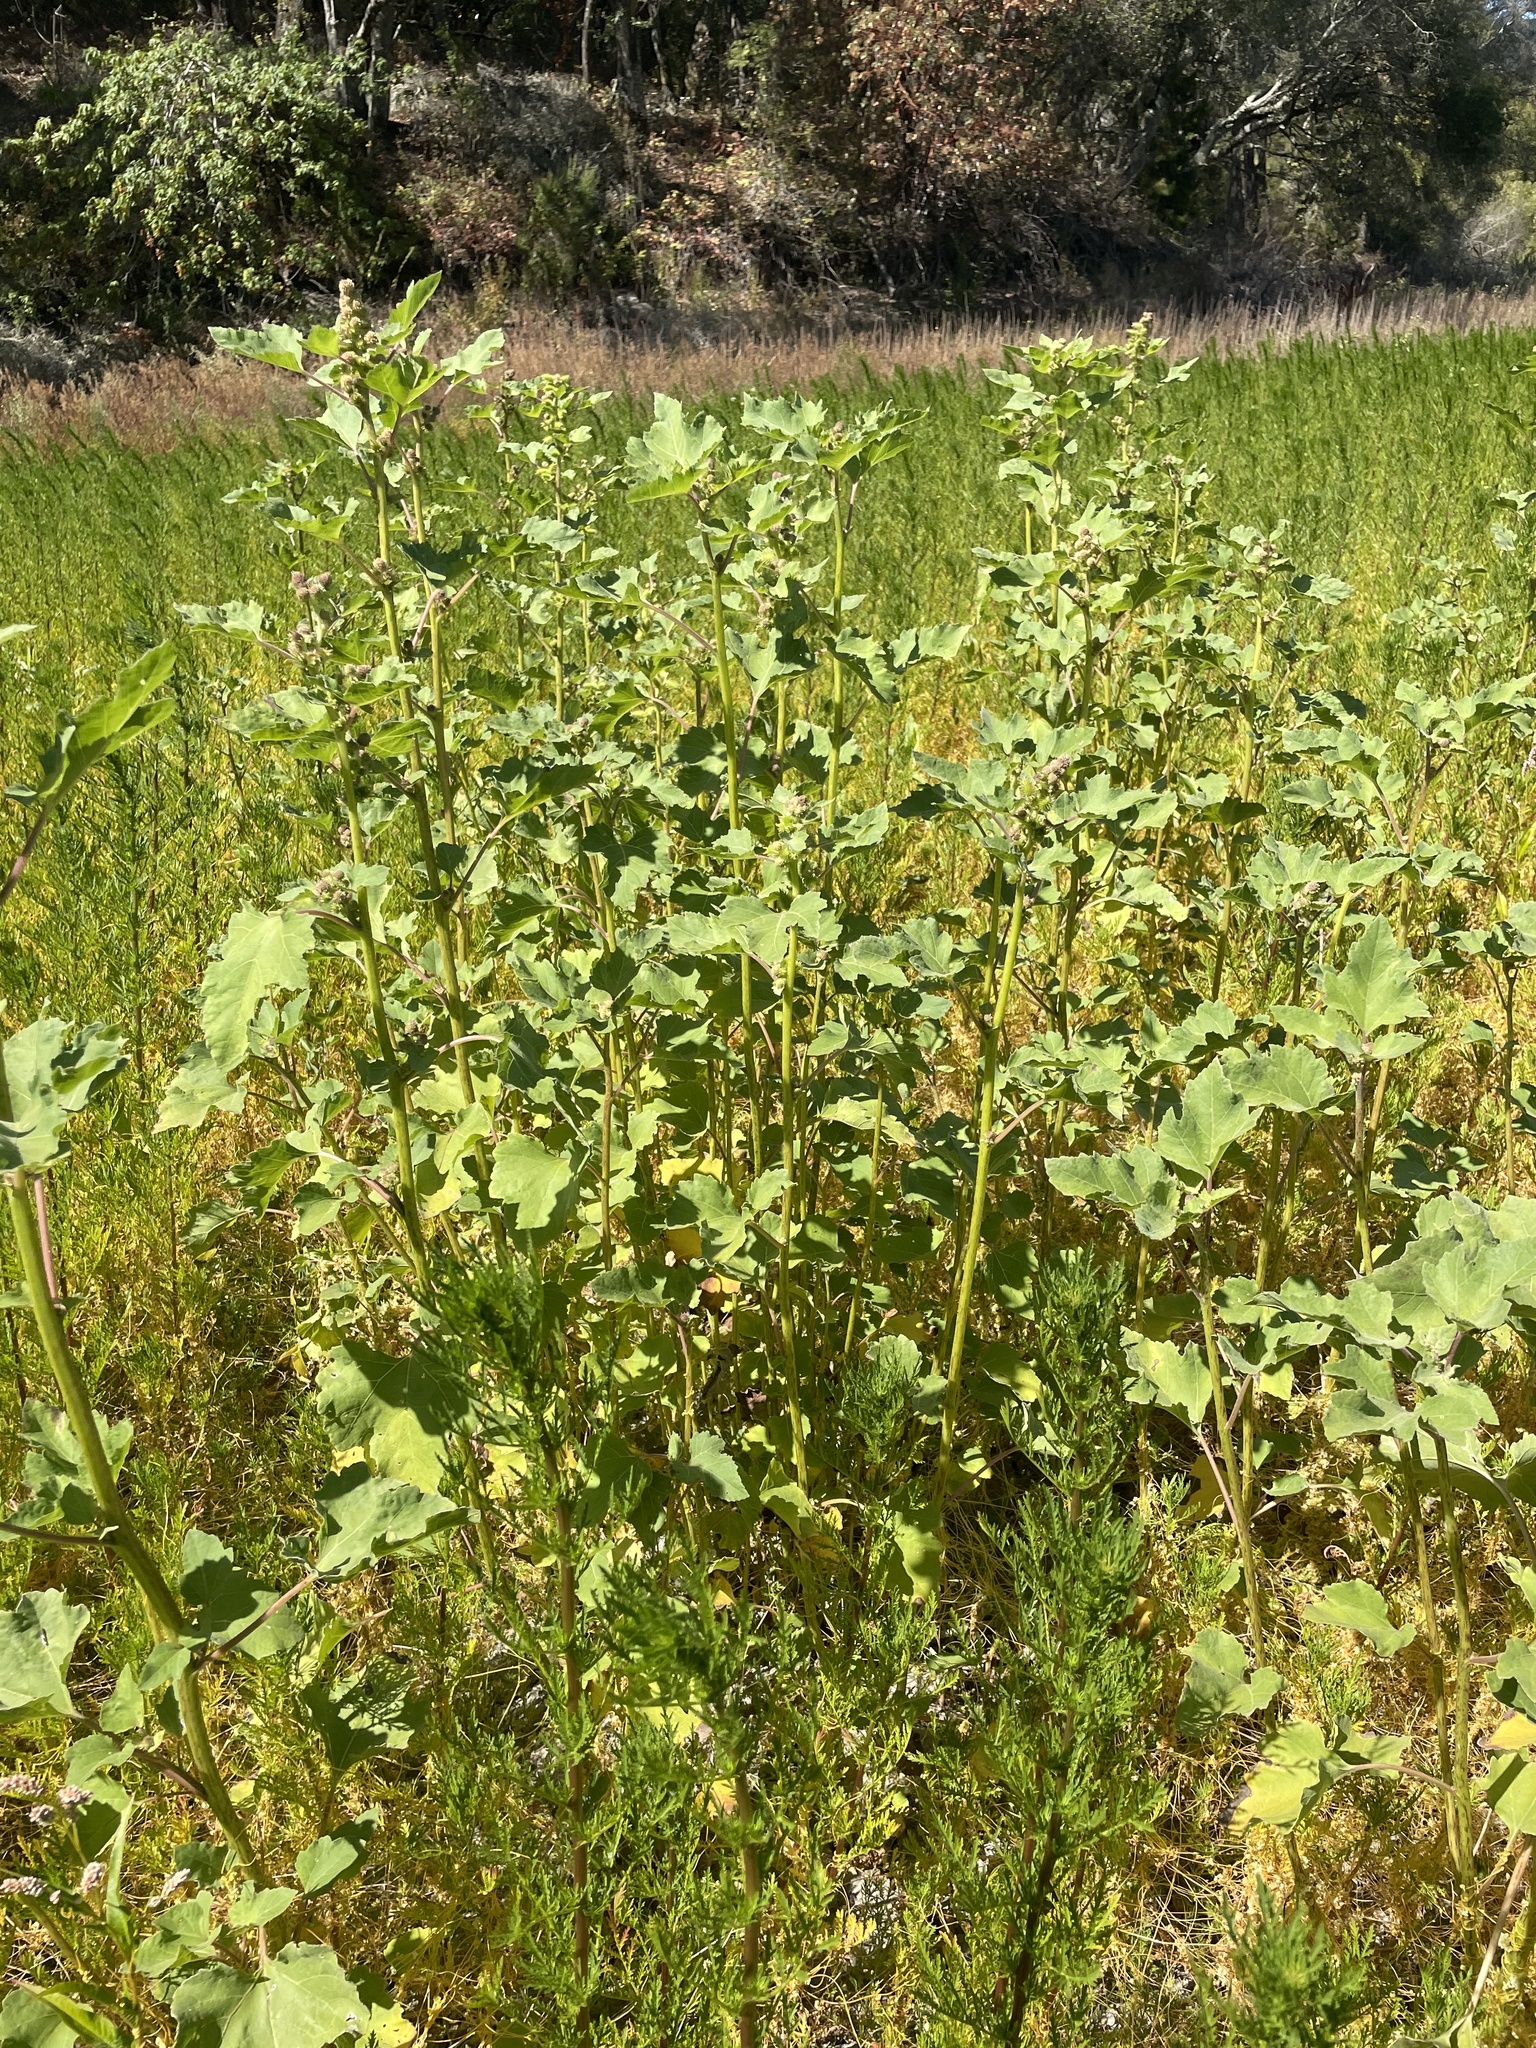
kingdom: Plantae
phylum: Tracheophyta
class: Magnoliopsida
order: Asterales
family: Asteraceae
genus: Xanthium
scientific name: Xanthium strumarium
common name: Rough cocklebur
